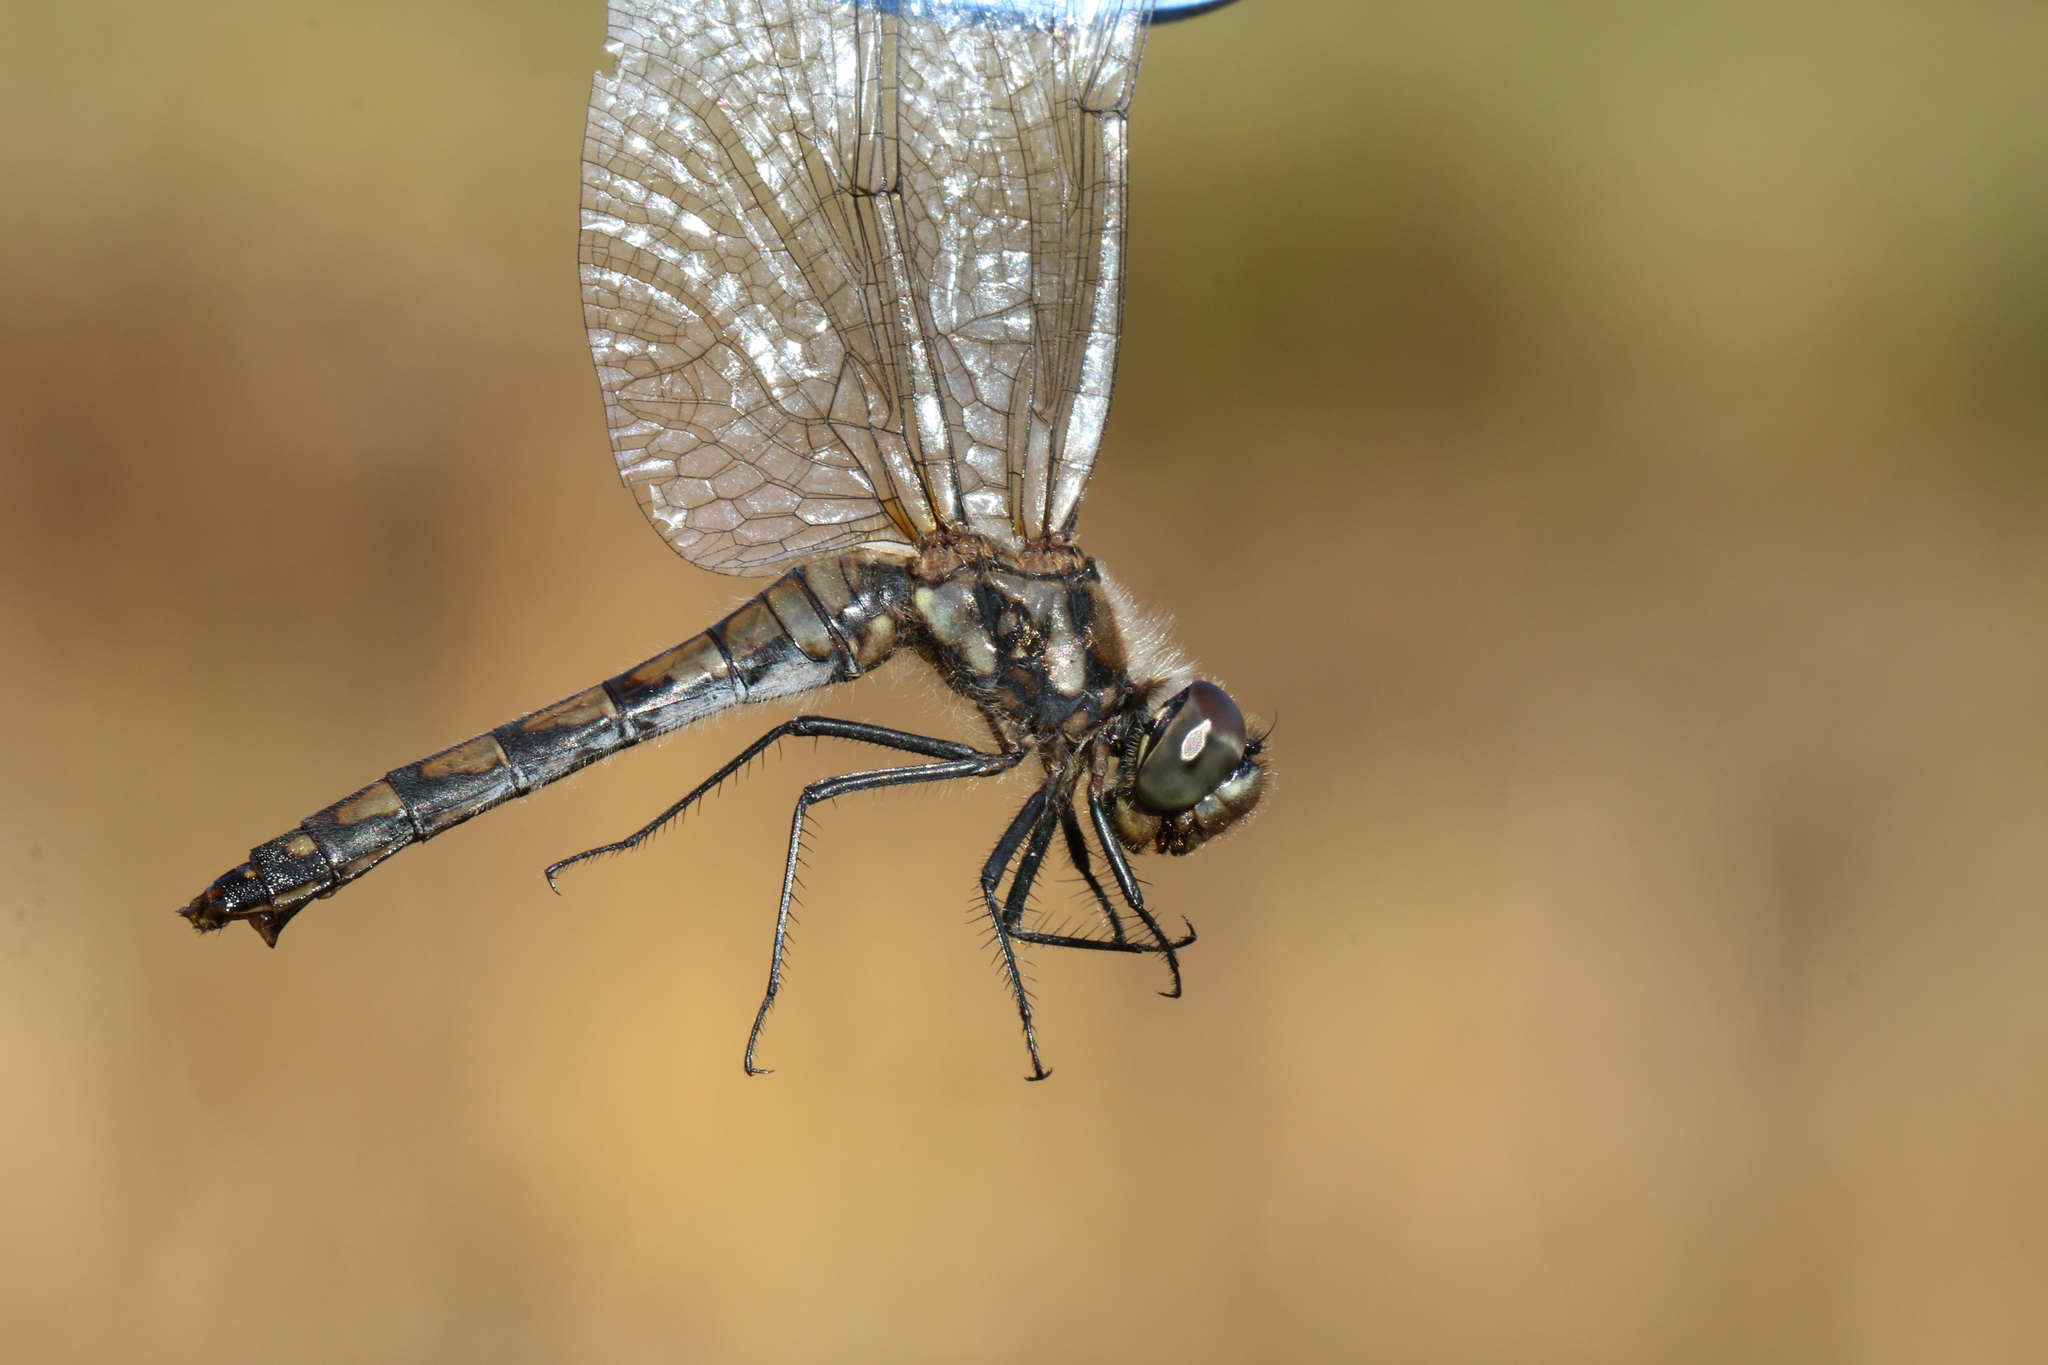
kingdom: Animalia
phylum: Arthropoda
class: Insecta
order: Odonata
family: Libellulidae
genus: Sympetrum
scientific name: Sympetrum danae
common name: Black darter
